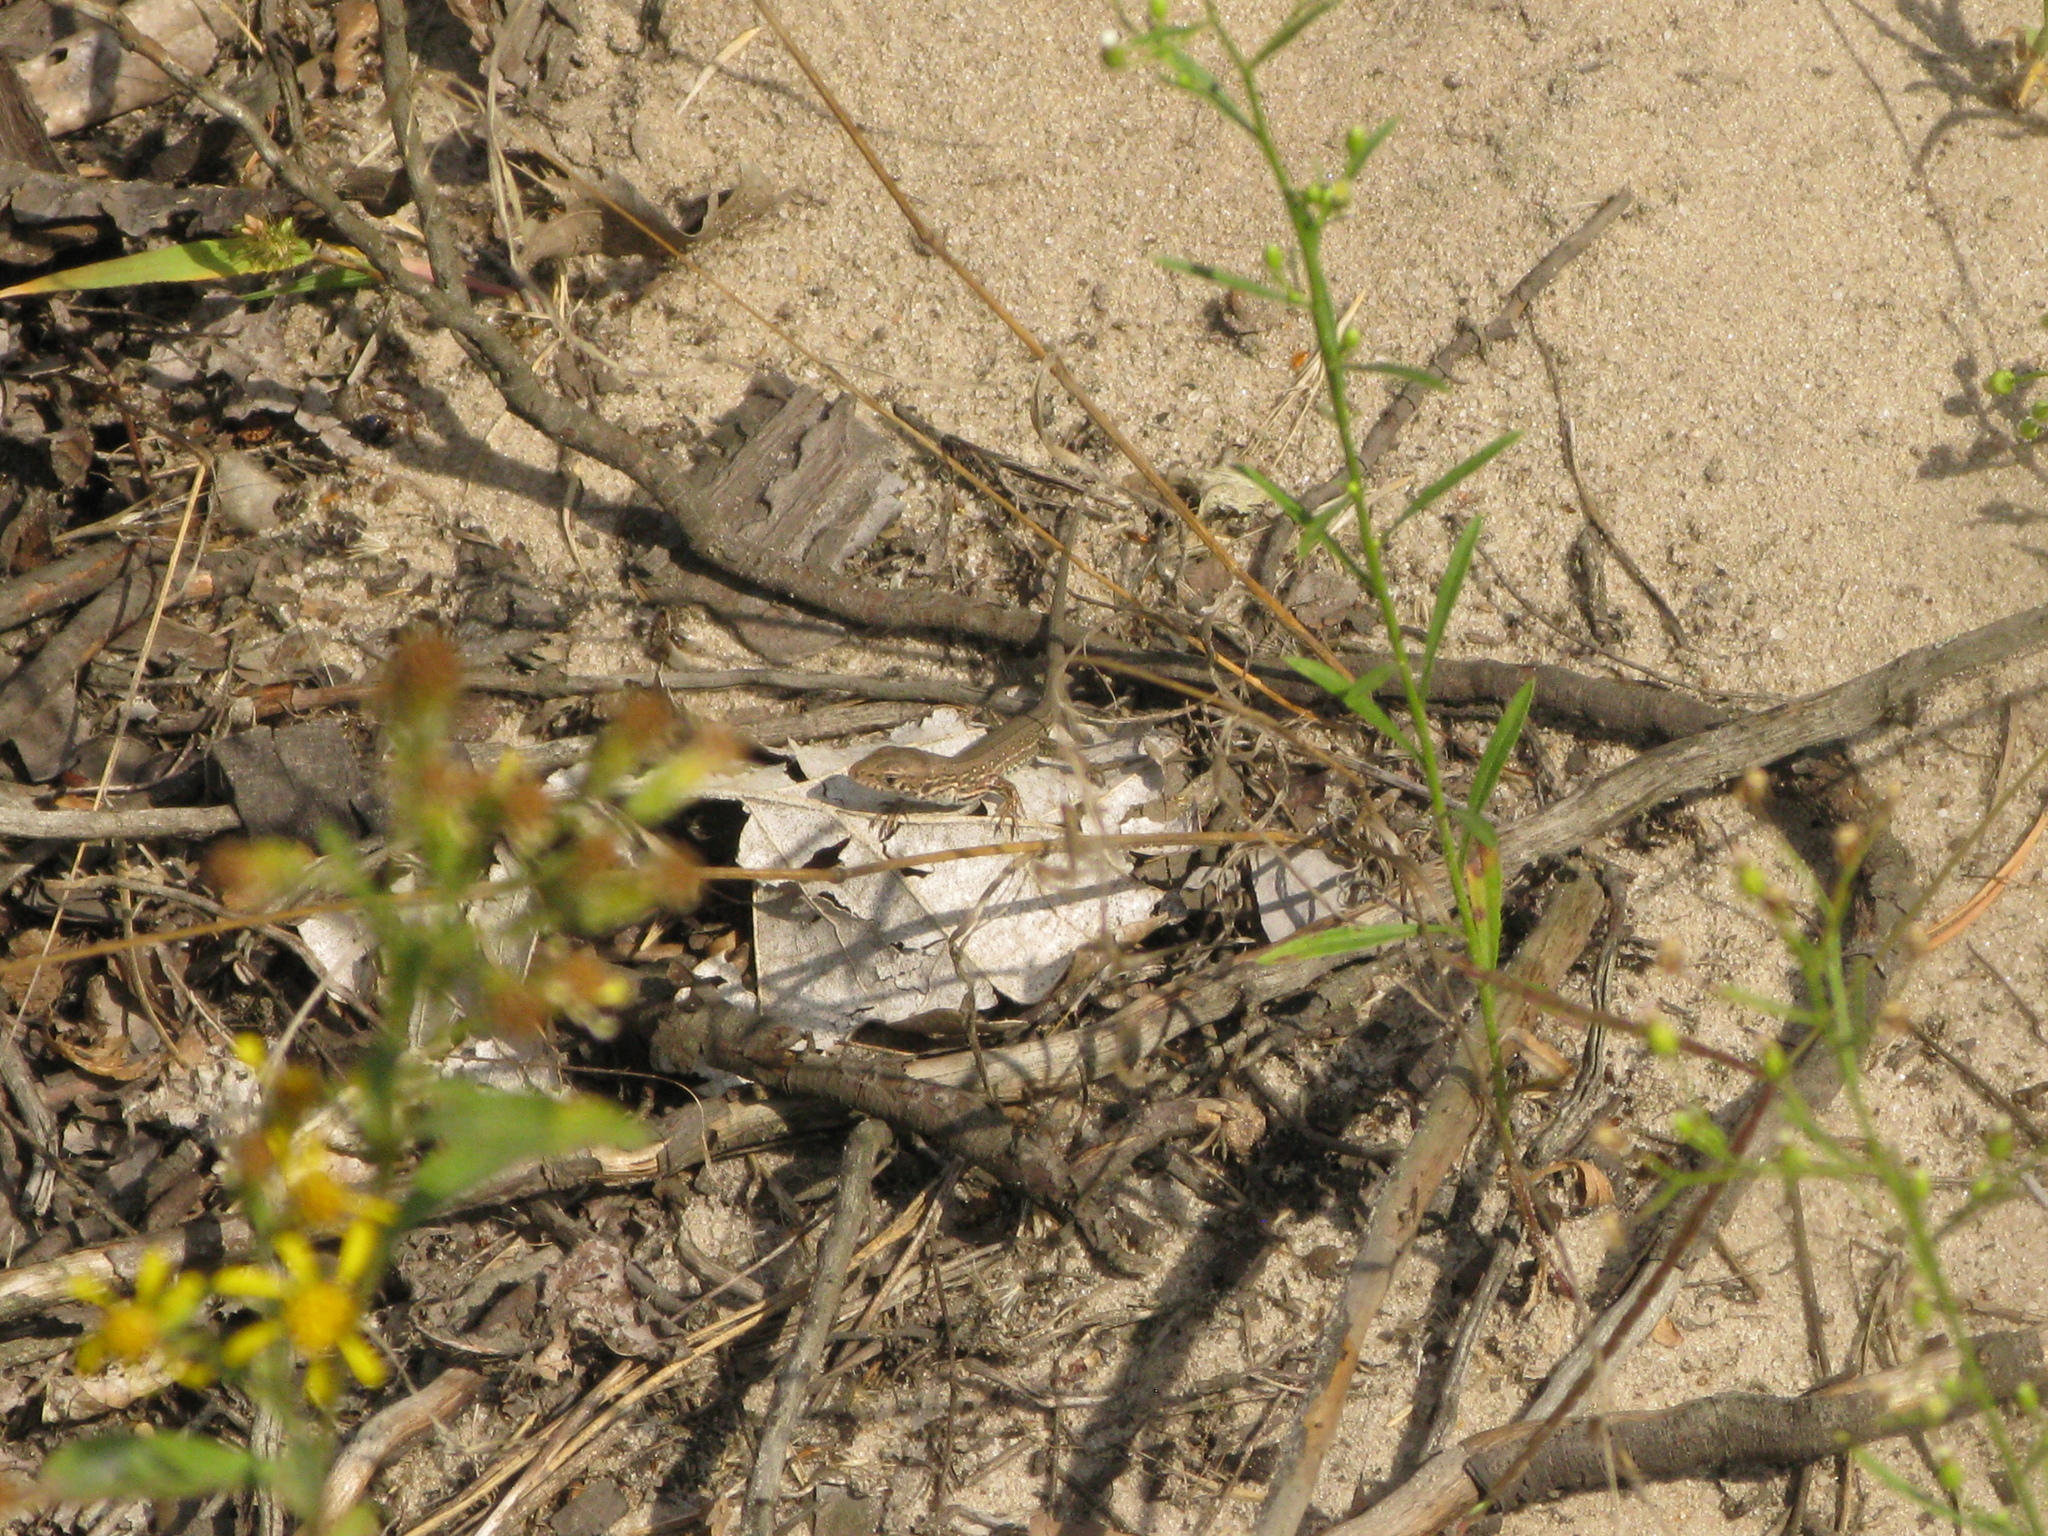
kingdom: Animalia
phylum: Chordata
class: Squamata
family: Lacertidae
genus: Lacerta
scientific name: Lacerta agilis
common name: Sand lizard
